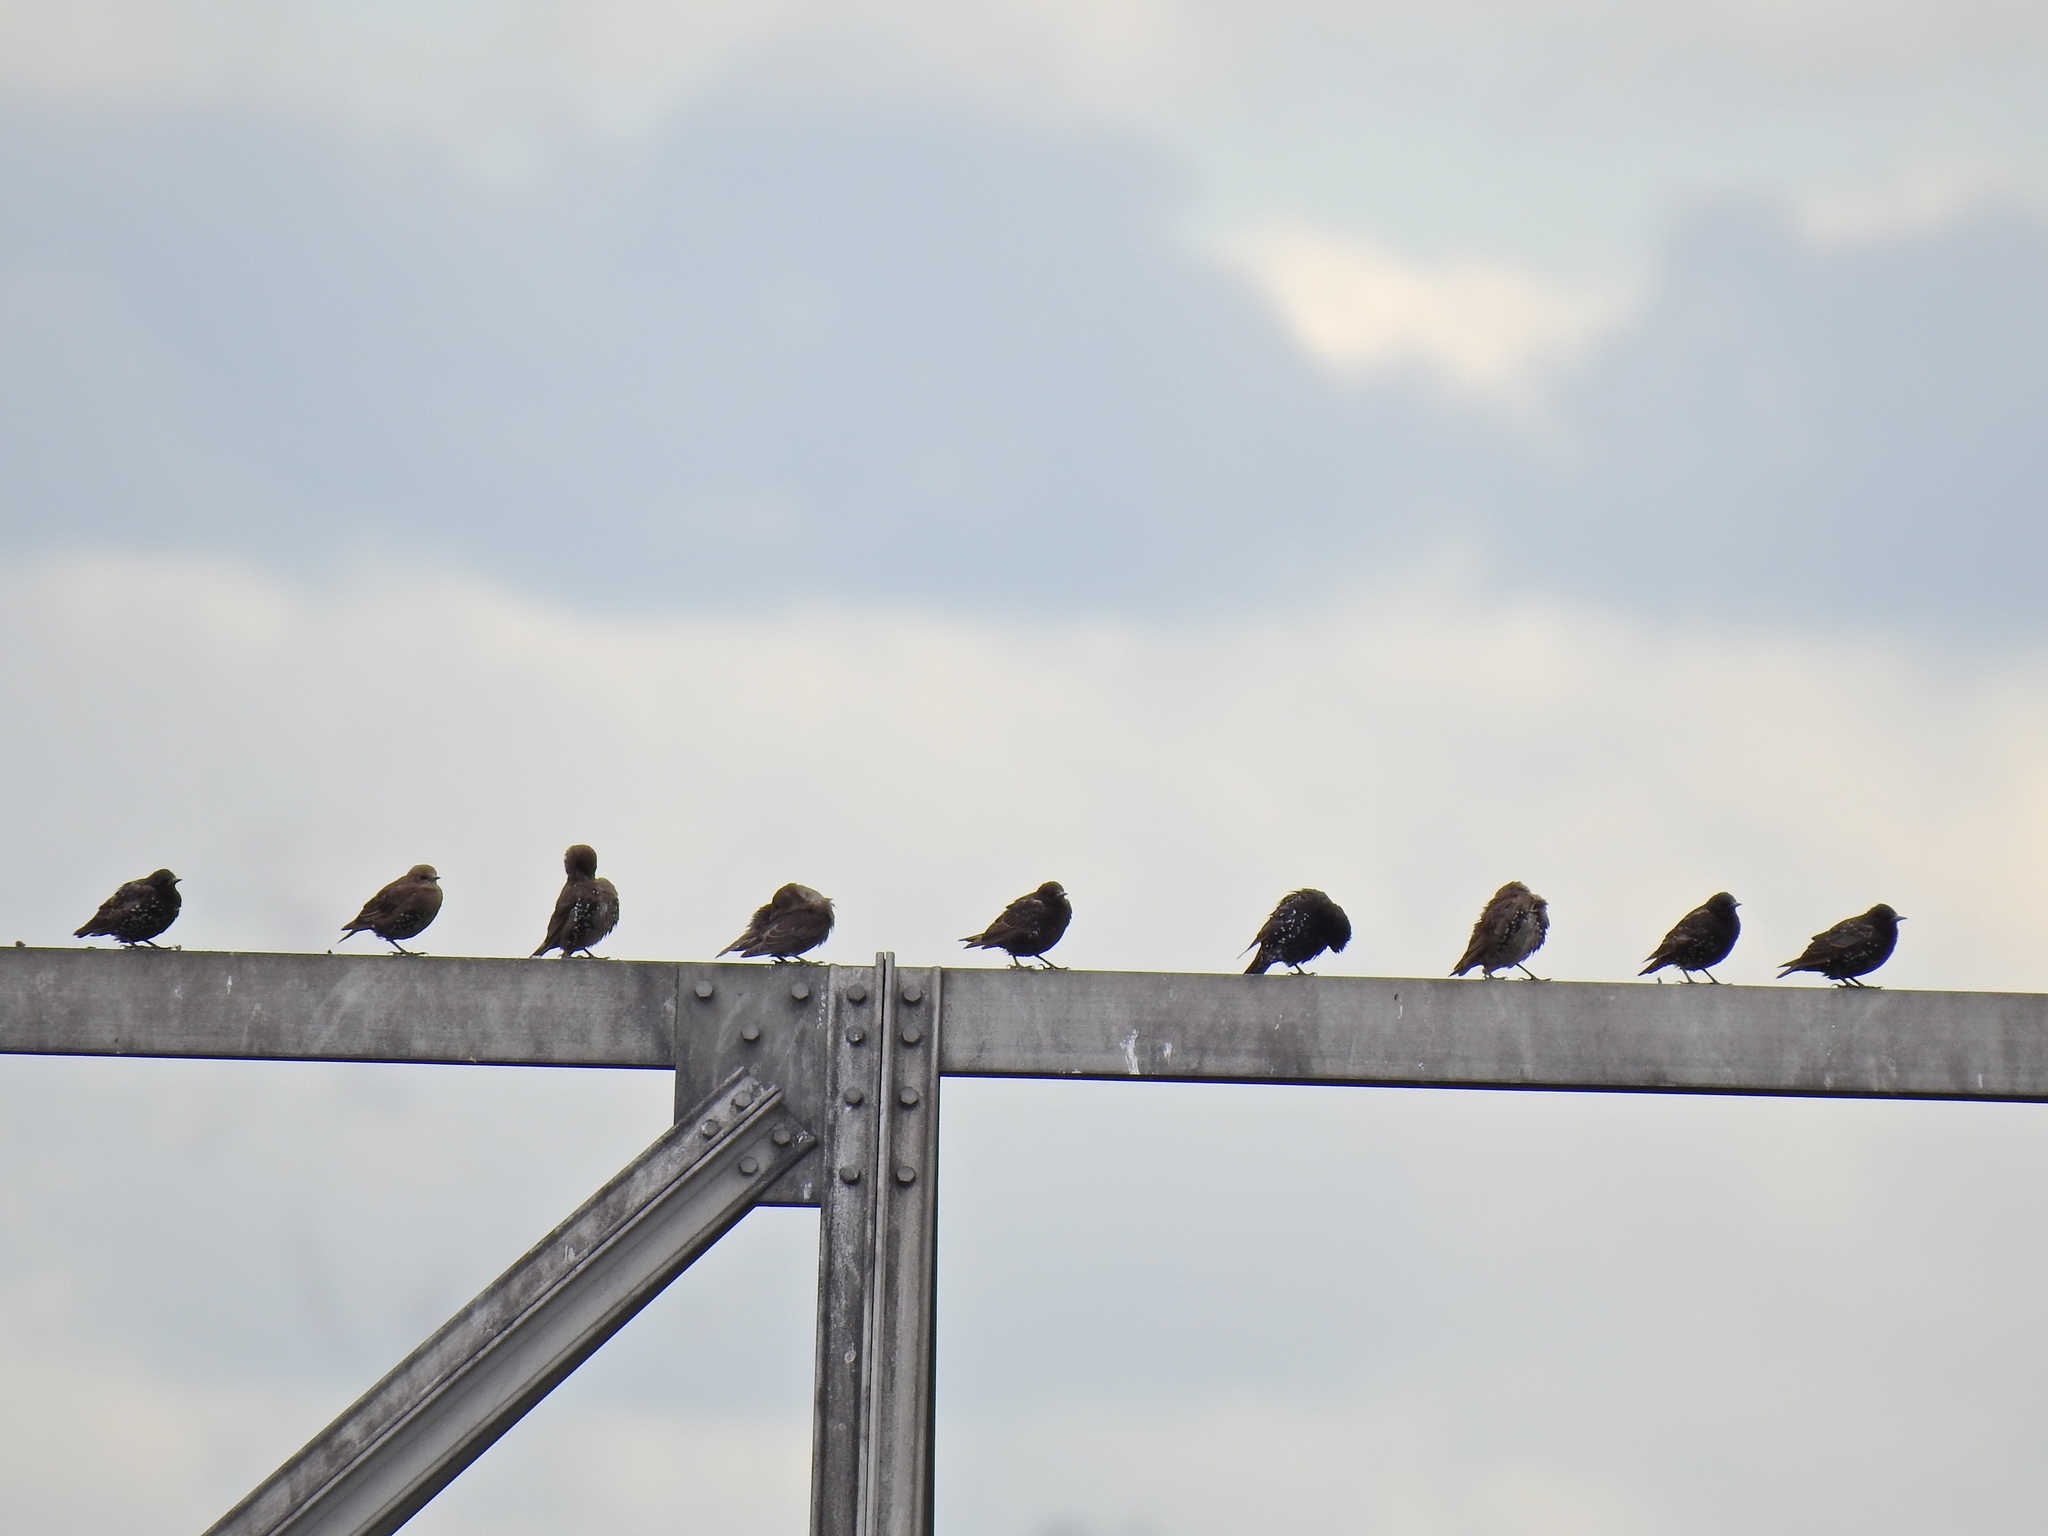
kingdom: Animalia
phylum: Chordata
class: Aves
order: Passeriformes
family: Sturnidae
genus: Sturnus
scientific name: Sturnus vulgaris
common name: Common starling
